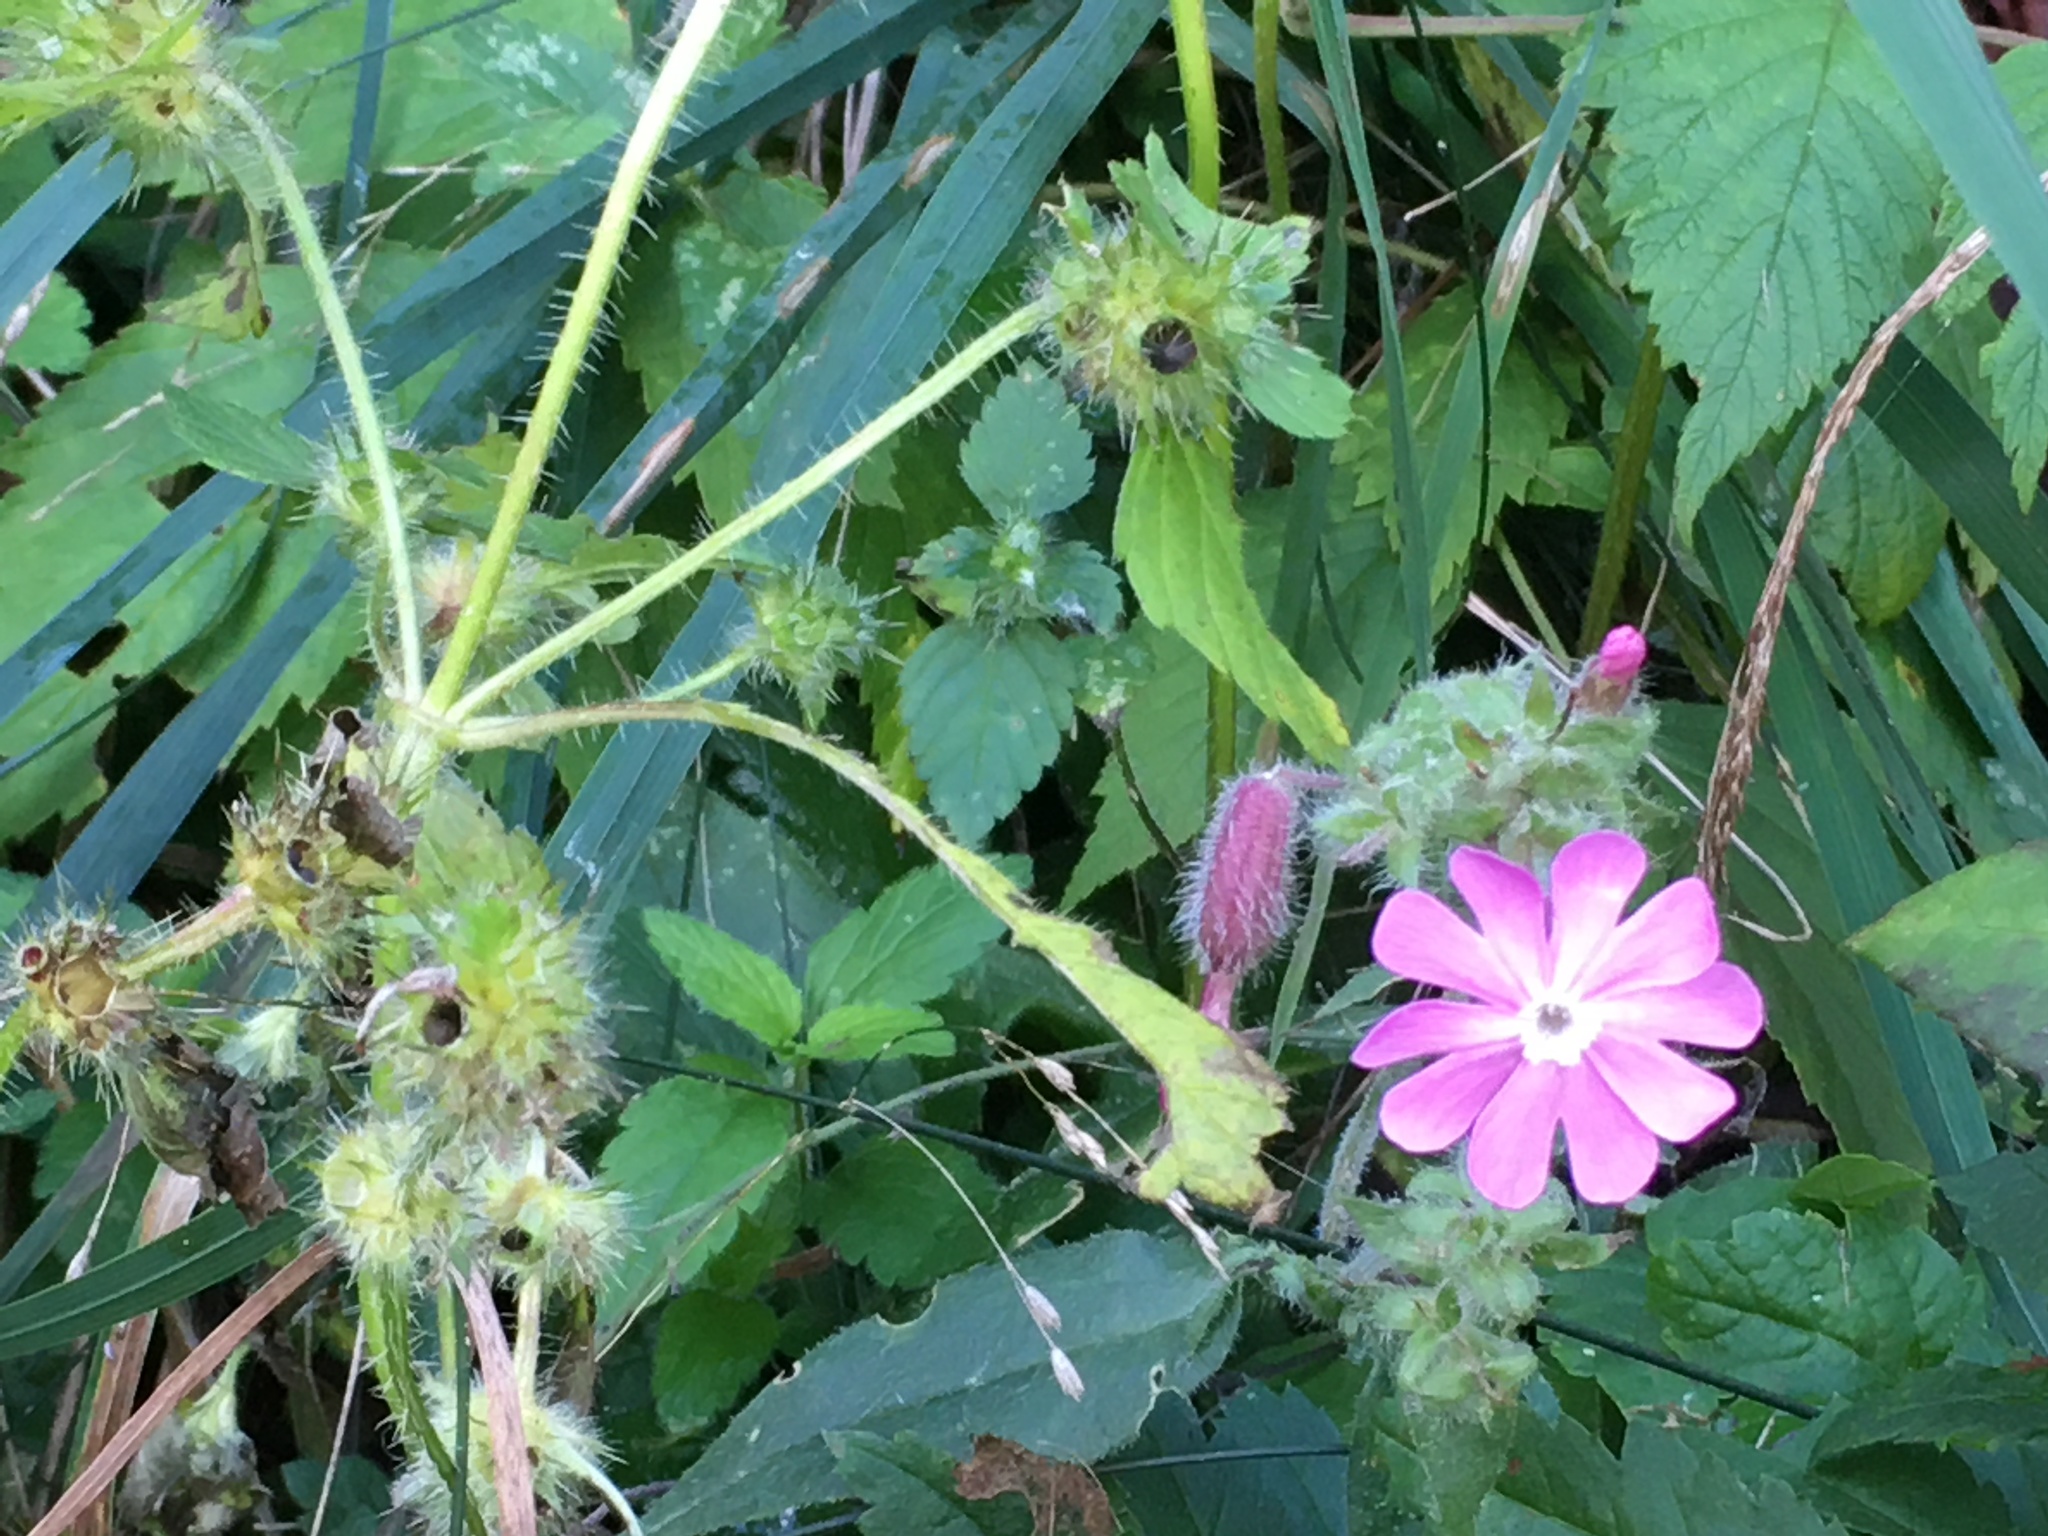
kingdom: Plantae
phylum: Tracheophyta
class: Magnoliopsida
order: Caryophyllales
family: Caryophyllaceae
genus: Silene
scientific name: Silene dioica
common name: Red campion
